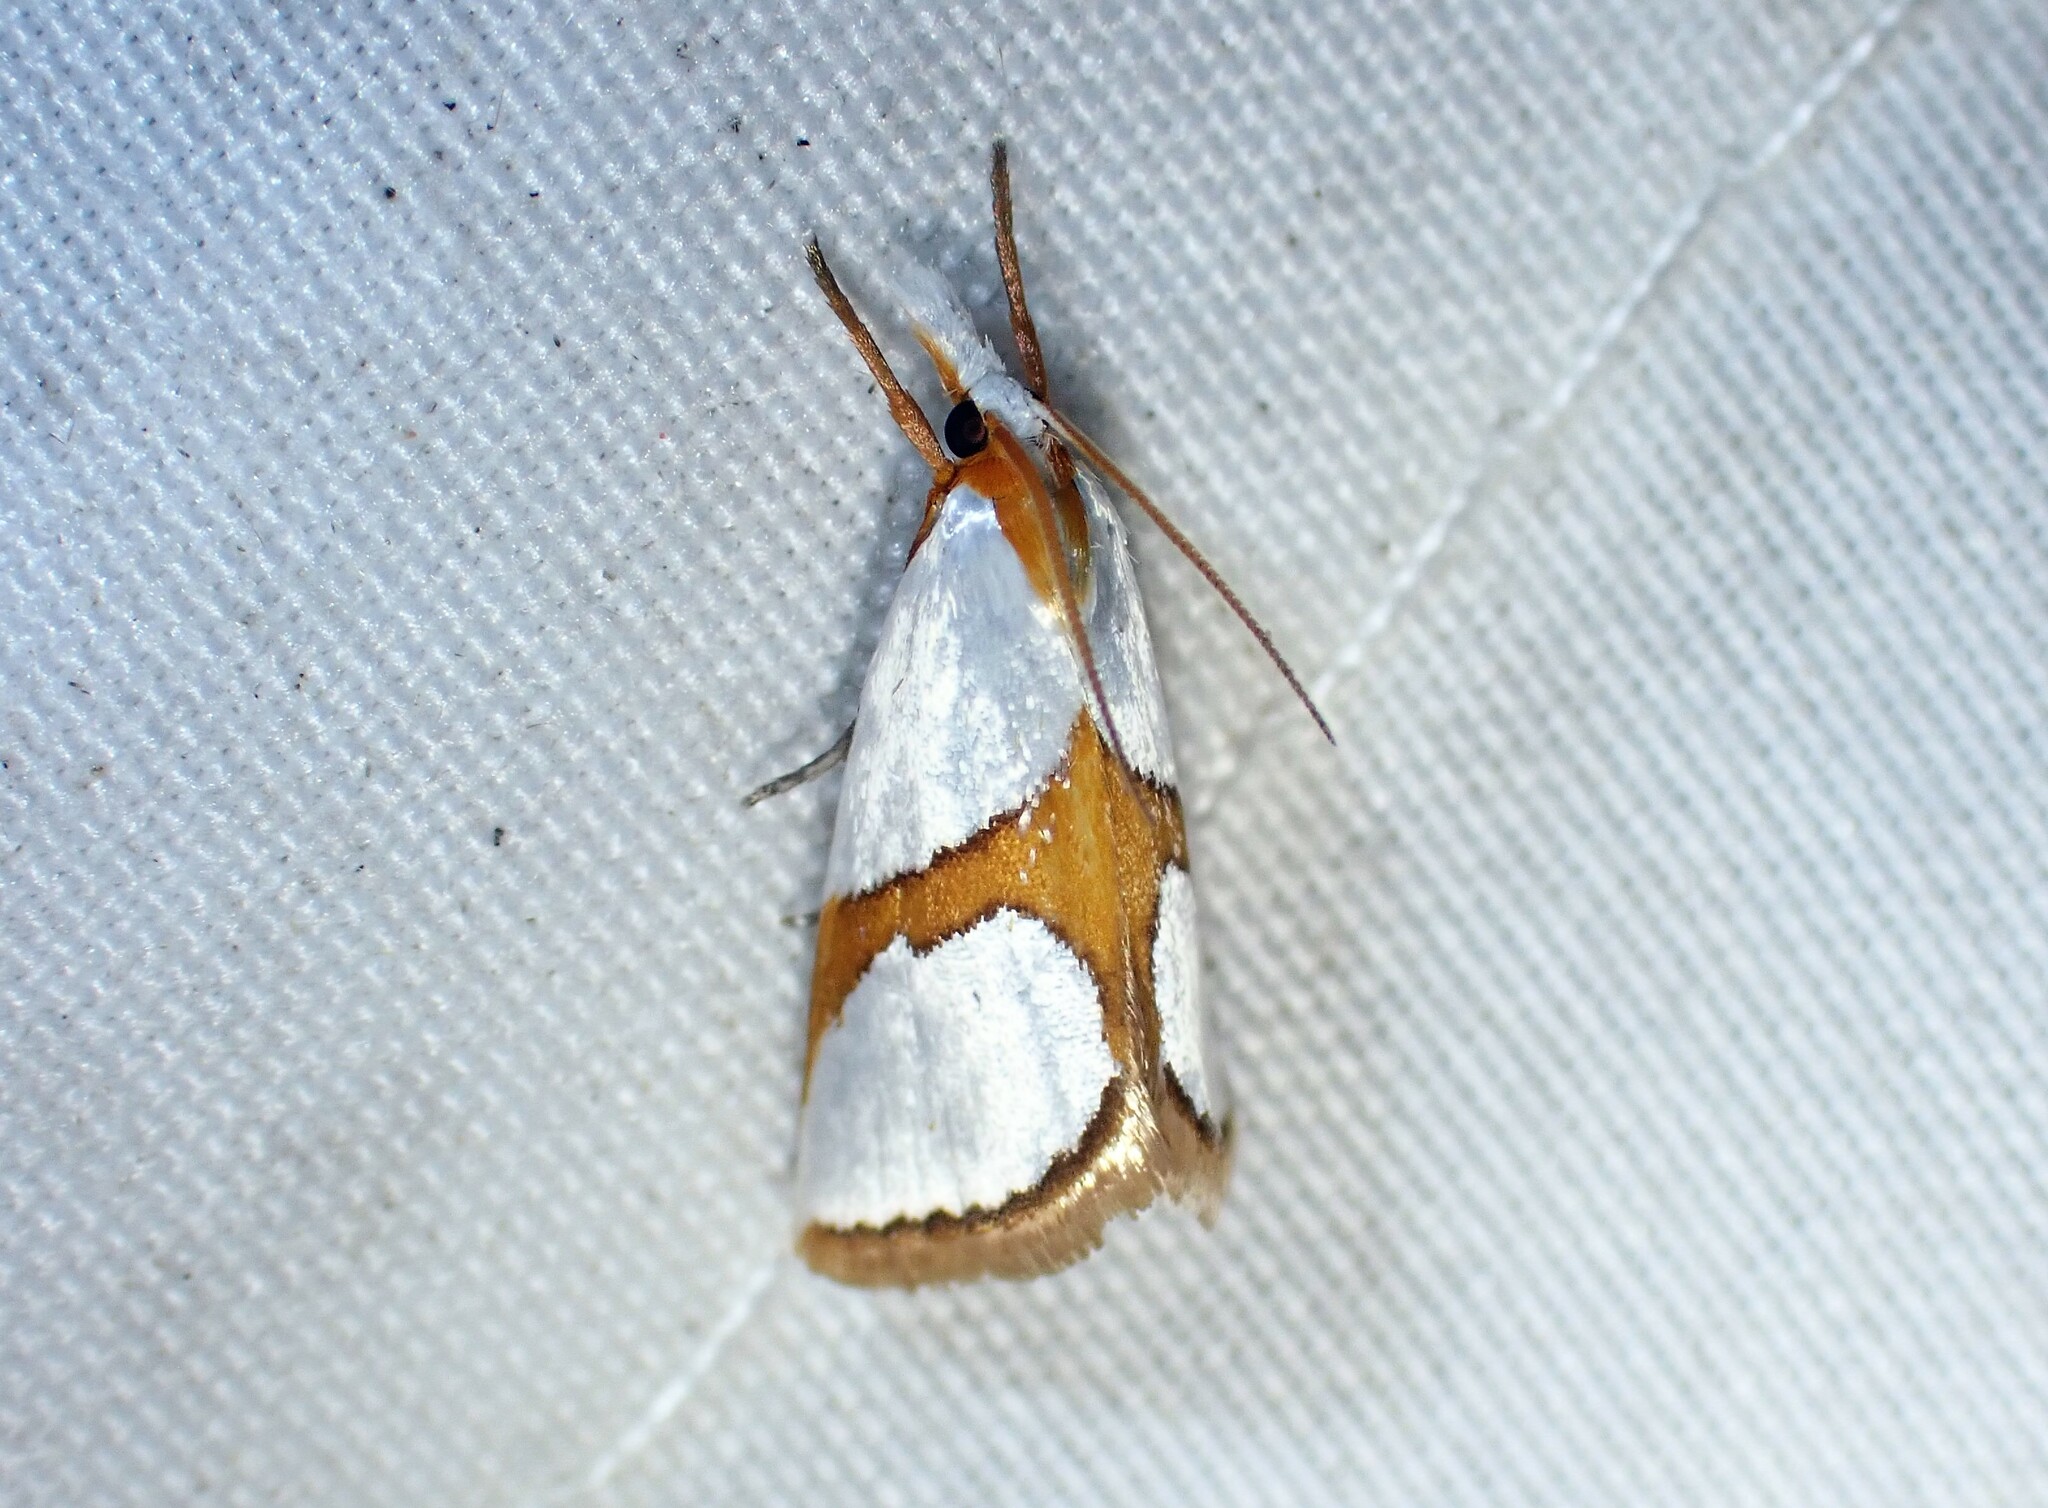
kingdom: Animalia
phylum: Arthropoda
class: Insecta
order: Lepidoptera
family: Crambidae
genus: Argyria
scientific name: Argyria auratella
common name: Curve-lined argyria moth
